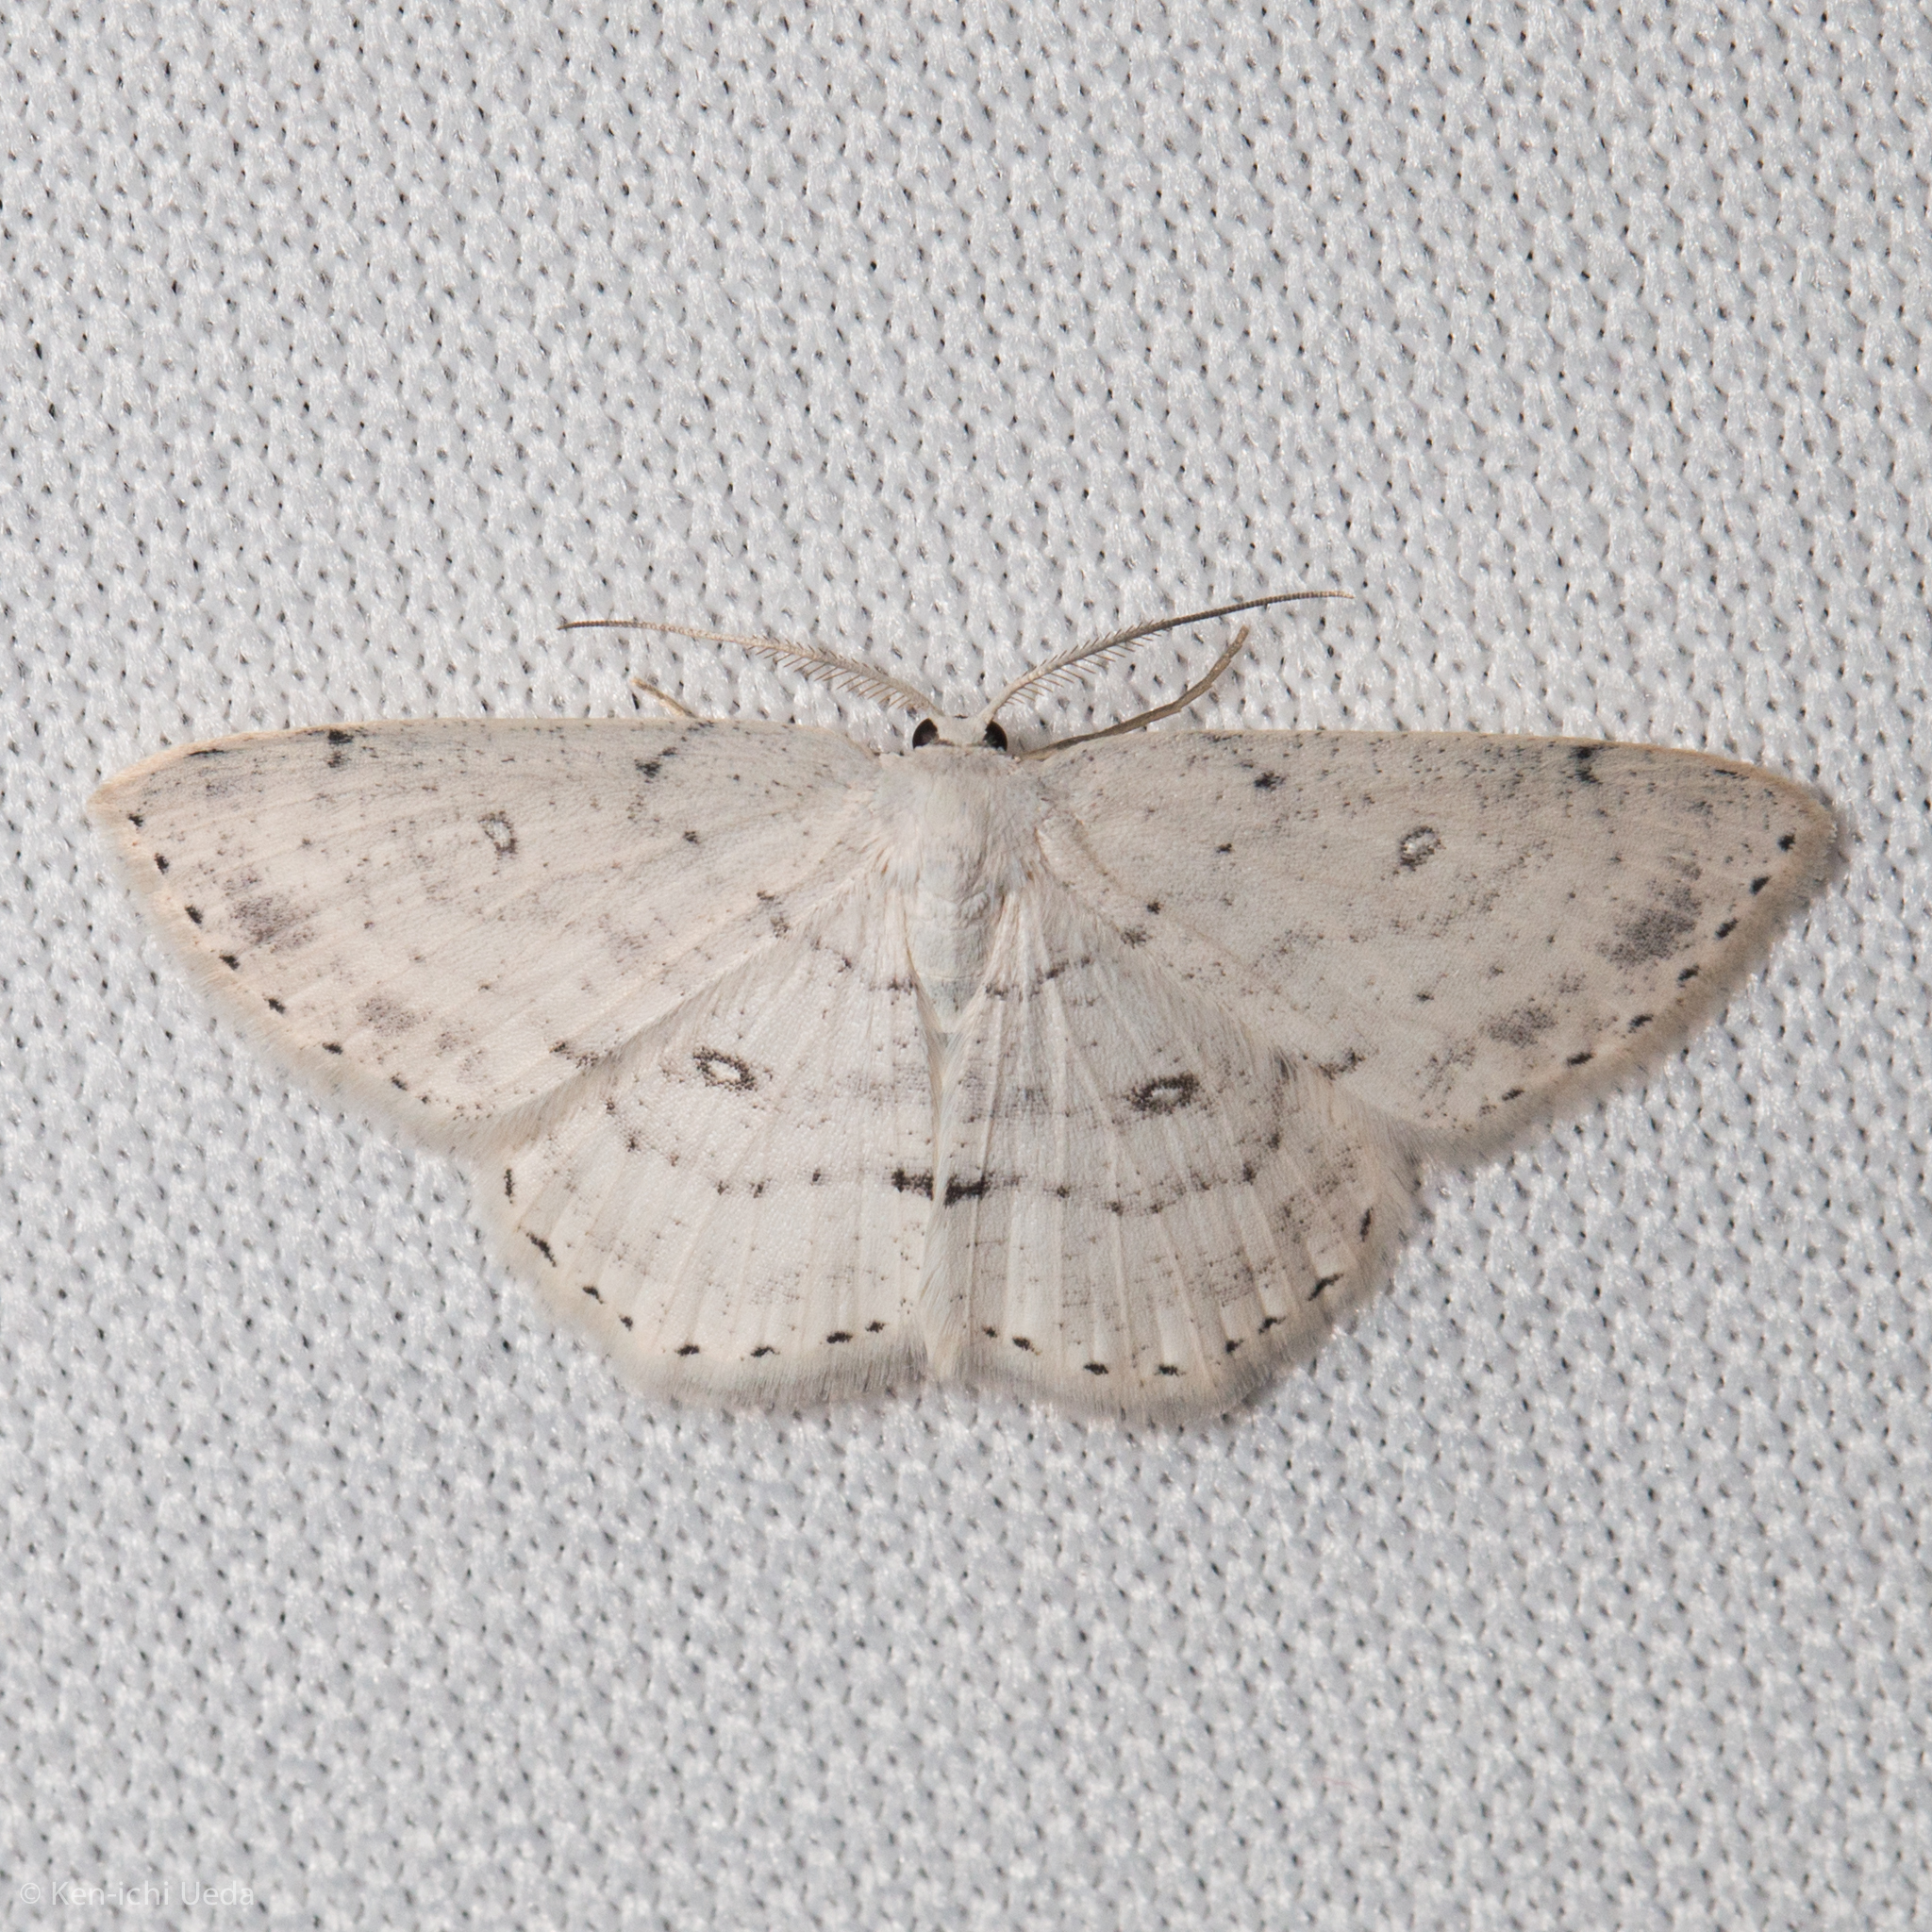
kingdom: Animalia
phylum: Arthropoda
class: Insecta
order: Lepidoptera
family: Geometridae
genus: Cyclophora
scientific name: Cyclophora pendulinaria
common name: Sweet fern geometer
